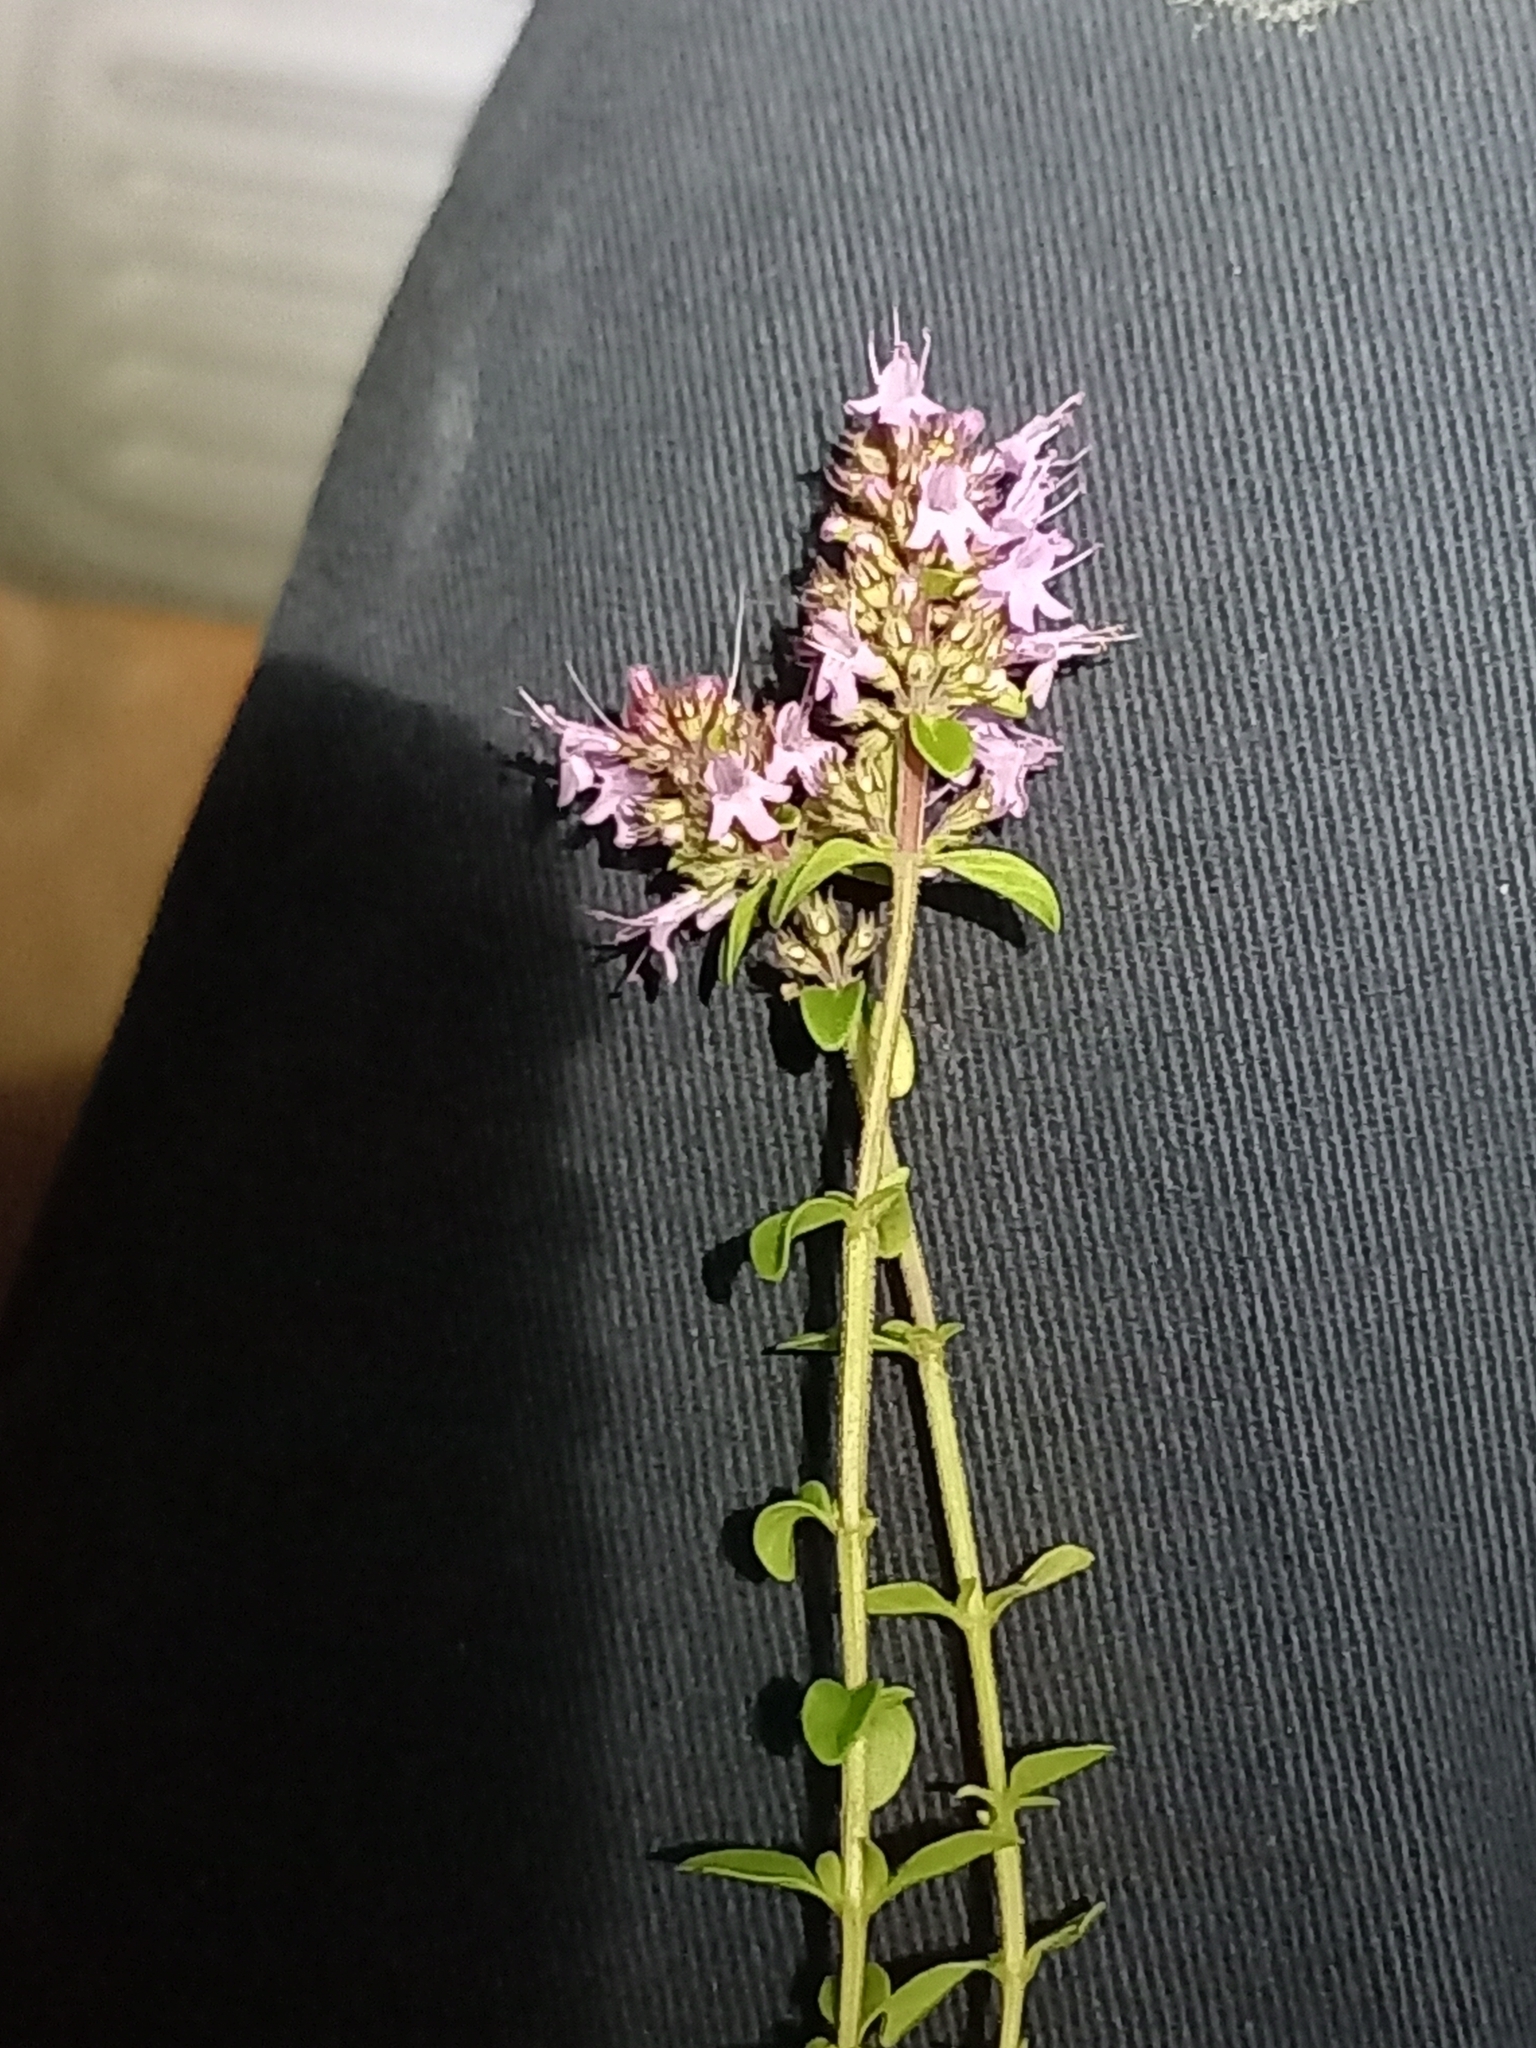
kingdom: Plantae
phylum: Tracheophyta
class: Magnoliopsida
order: Lamiales
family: Lamiaceae
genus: Thymus
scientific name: Thymus pulegioides
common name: Large thyme
